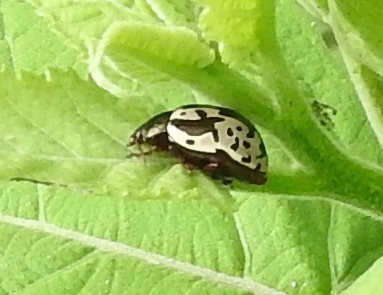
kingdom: Animalia
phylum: Arthropoda
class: Insecta
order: Coleoptera
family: Chrysomelidae
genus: Calligrapha
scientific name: Calligrapha intermedia
